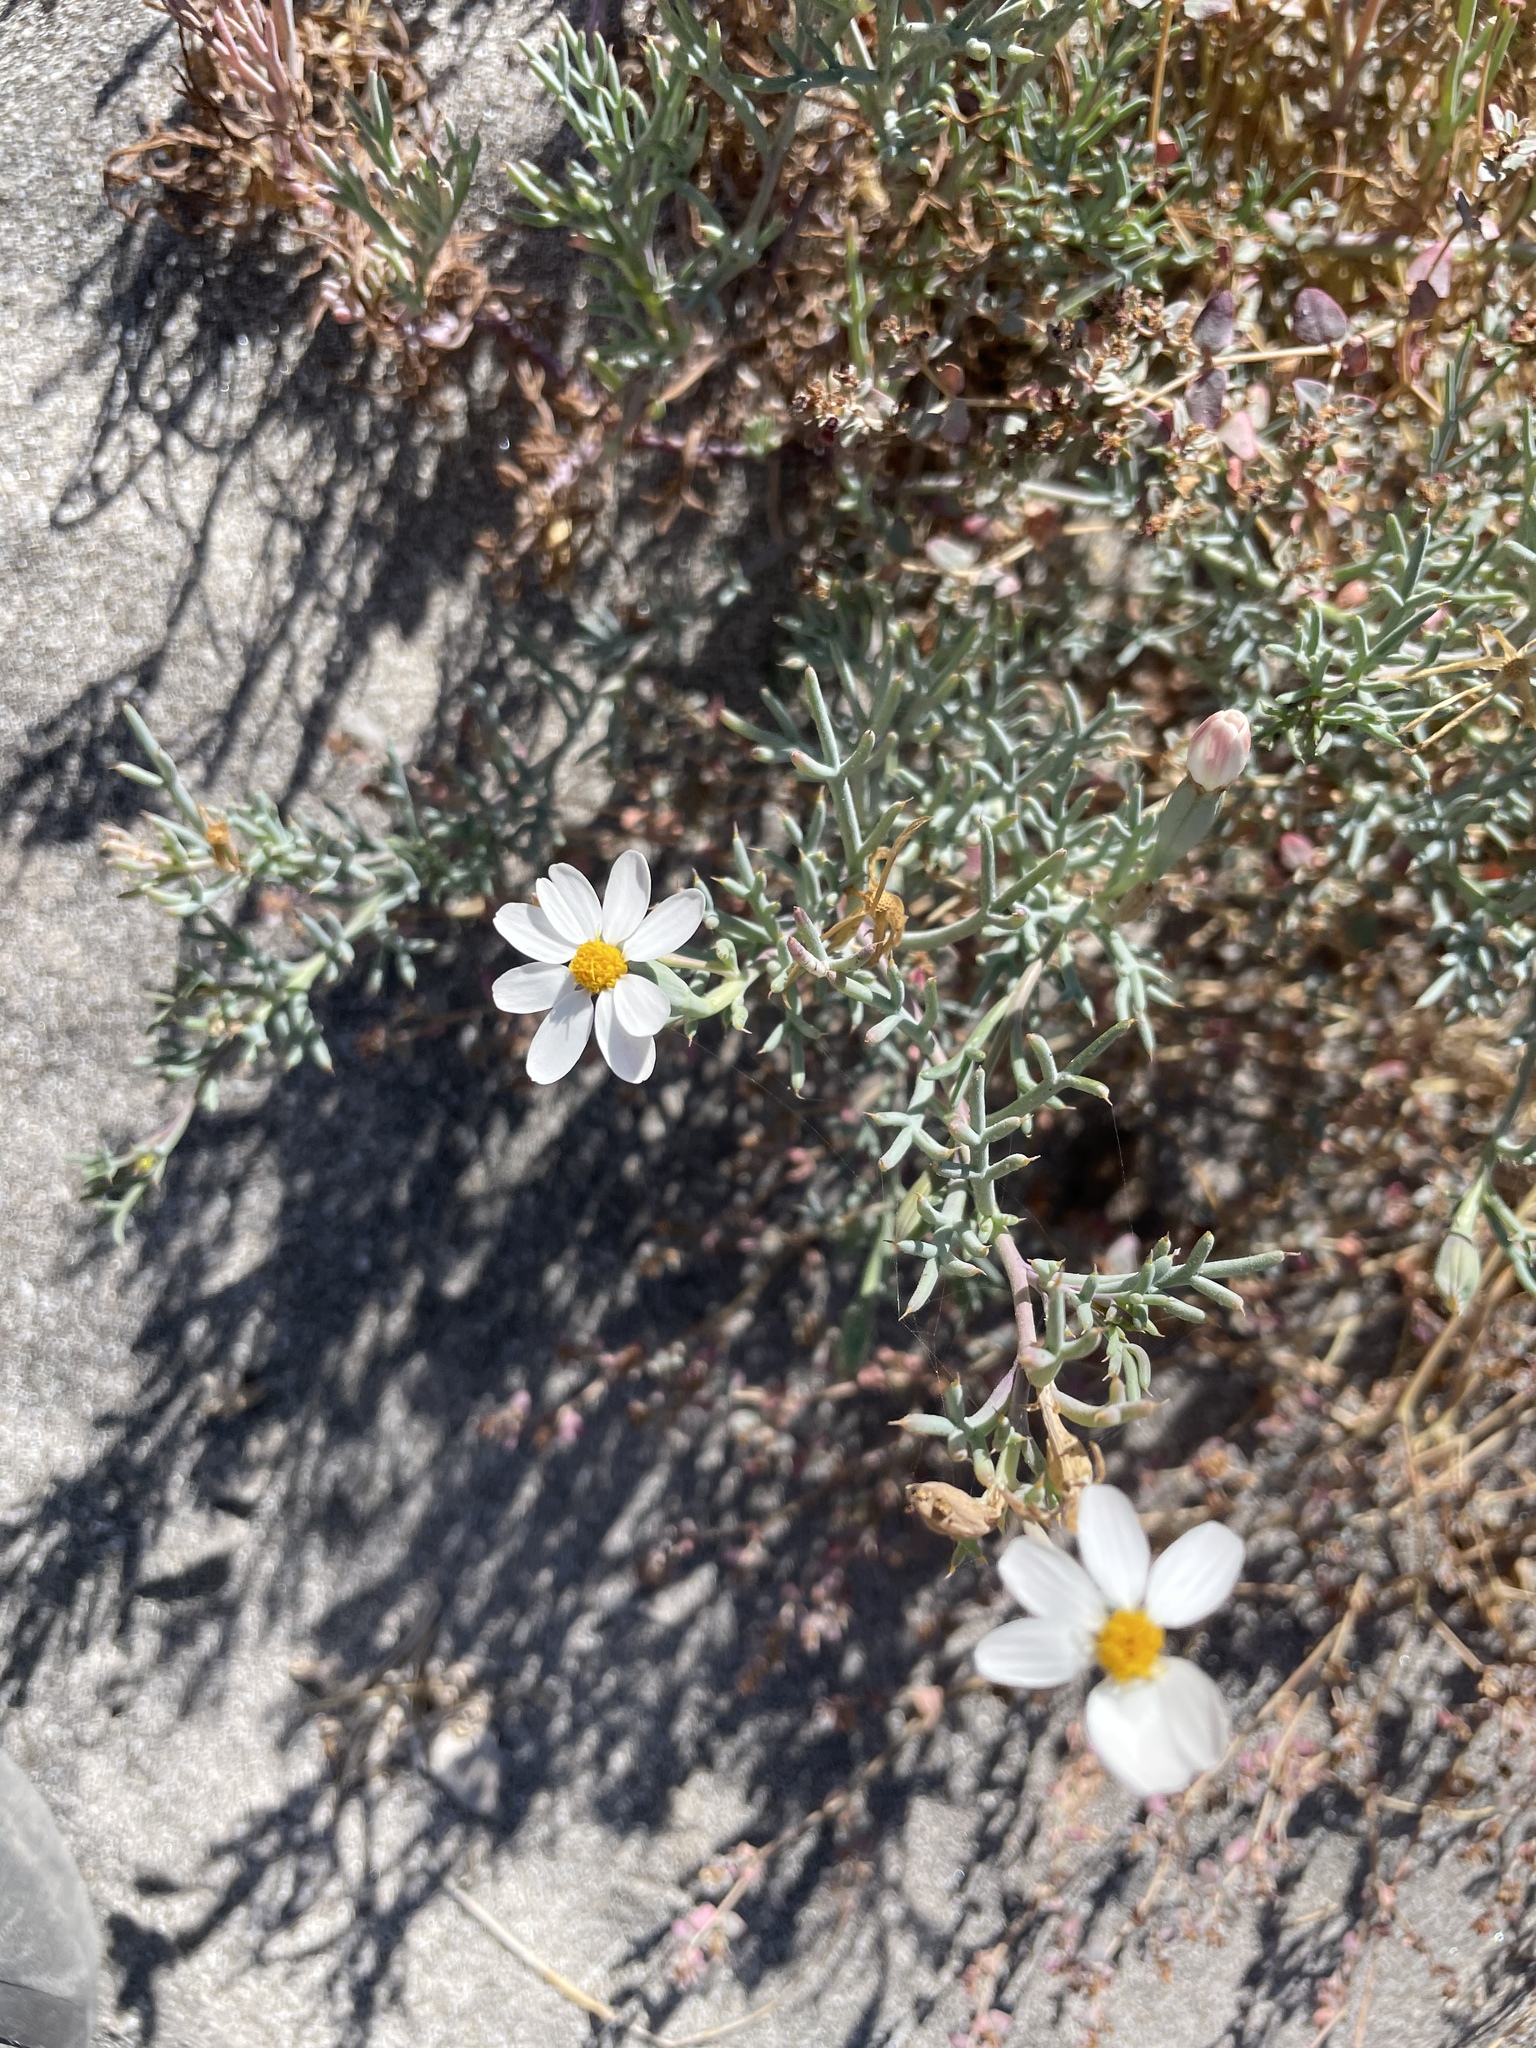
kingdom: Plantae
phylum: Tracheophyta
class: Magnoliopsida
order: Asterales
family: Asteraceae
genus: Nicolletia
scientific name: Nicolletia trifida
